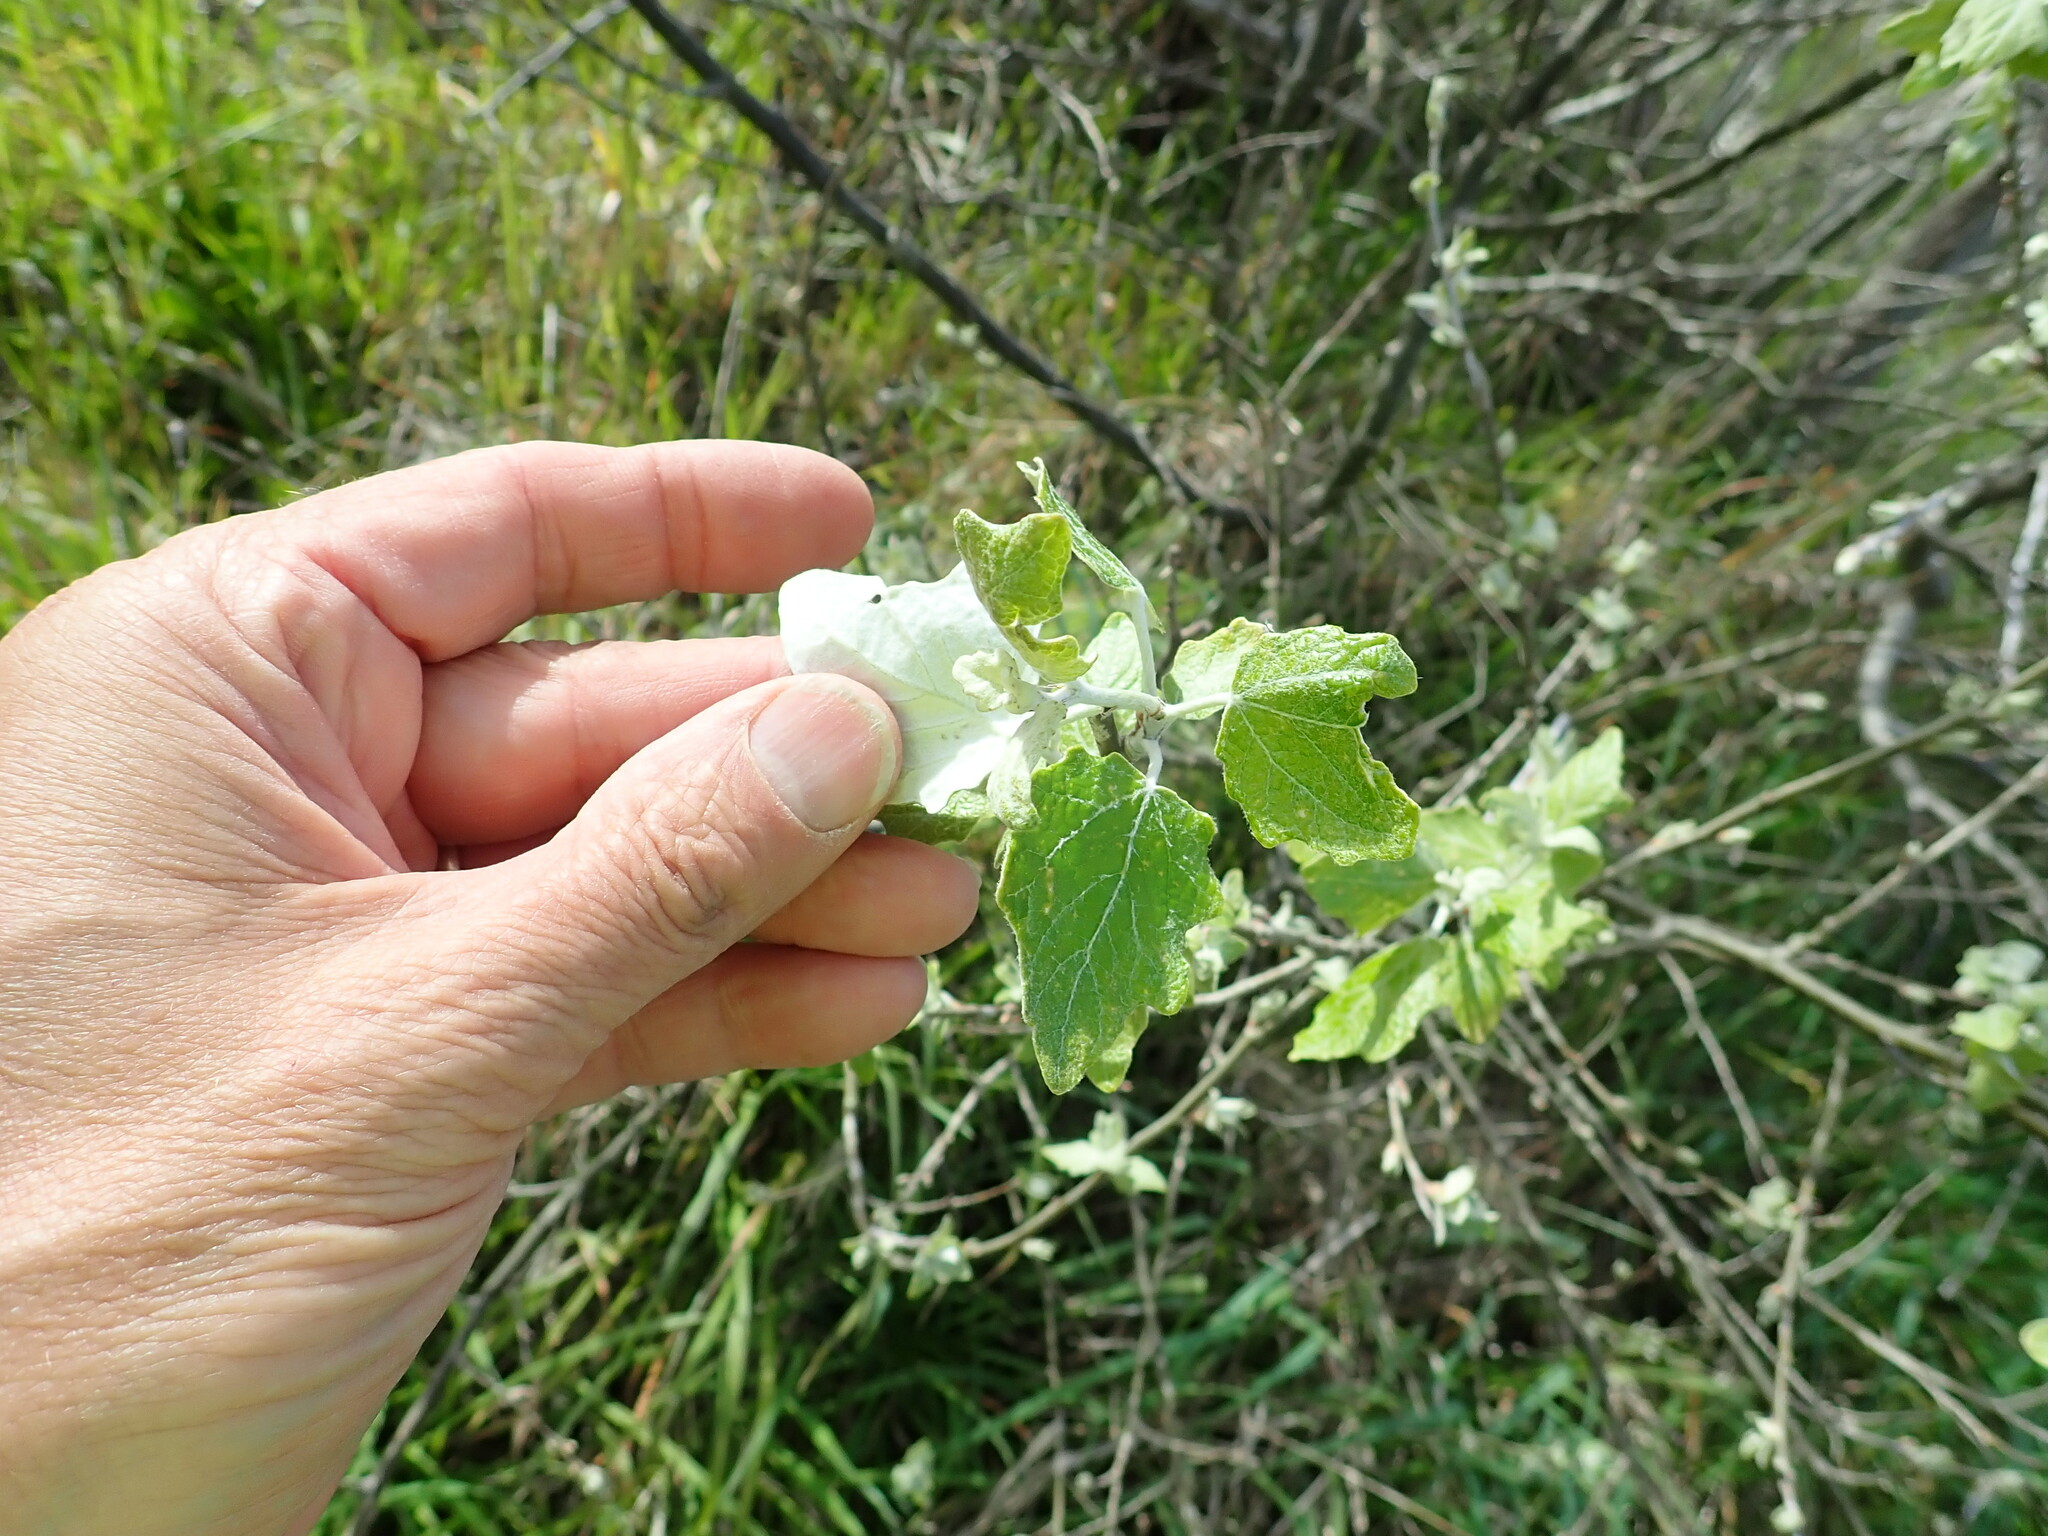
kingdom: Plantae
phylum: Tracheophyta
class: Magnoliopsida
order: Malpighiales
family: Salicaceae
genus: Populus
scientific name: Populus alba
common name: White poplar
